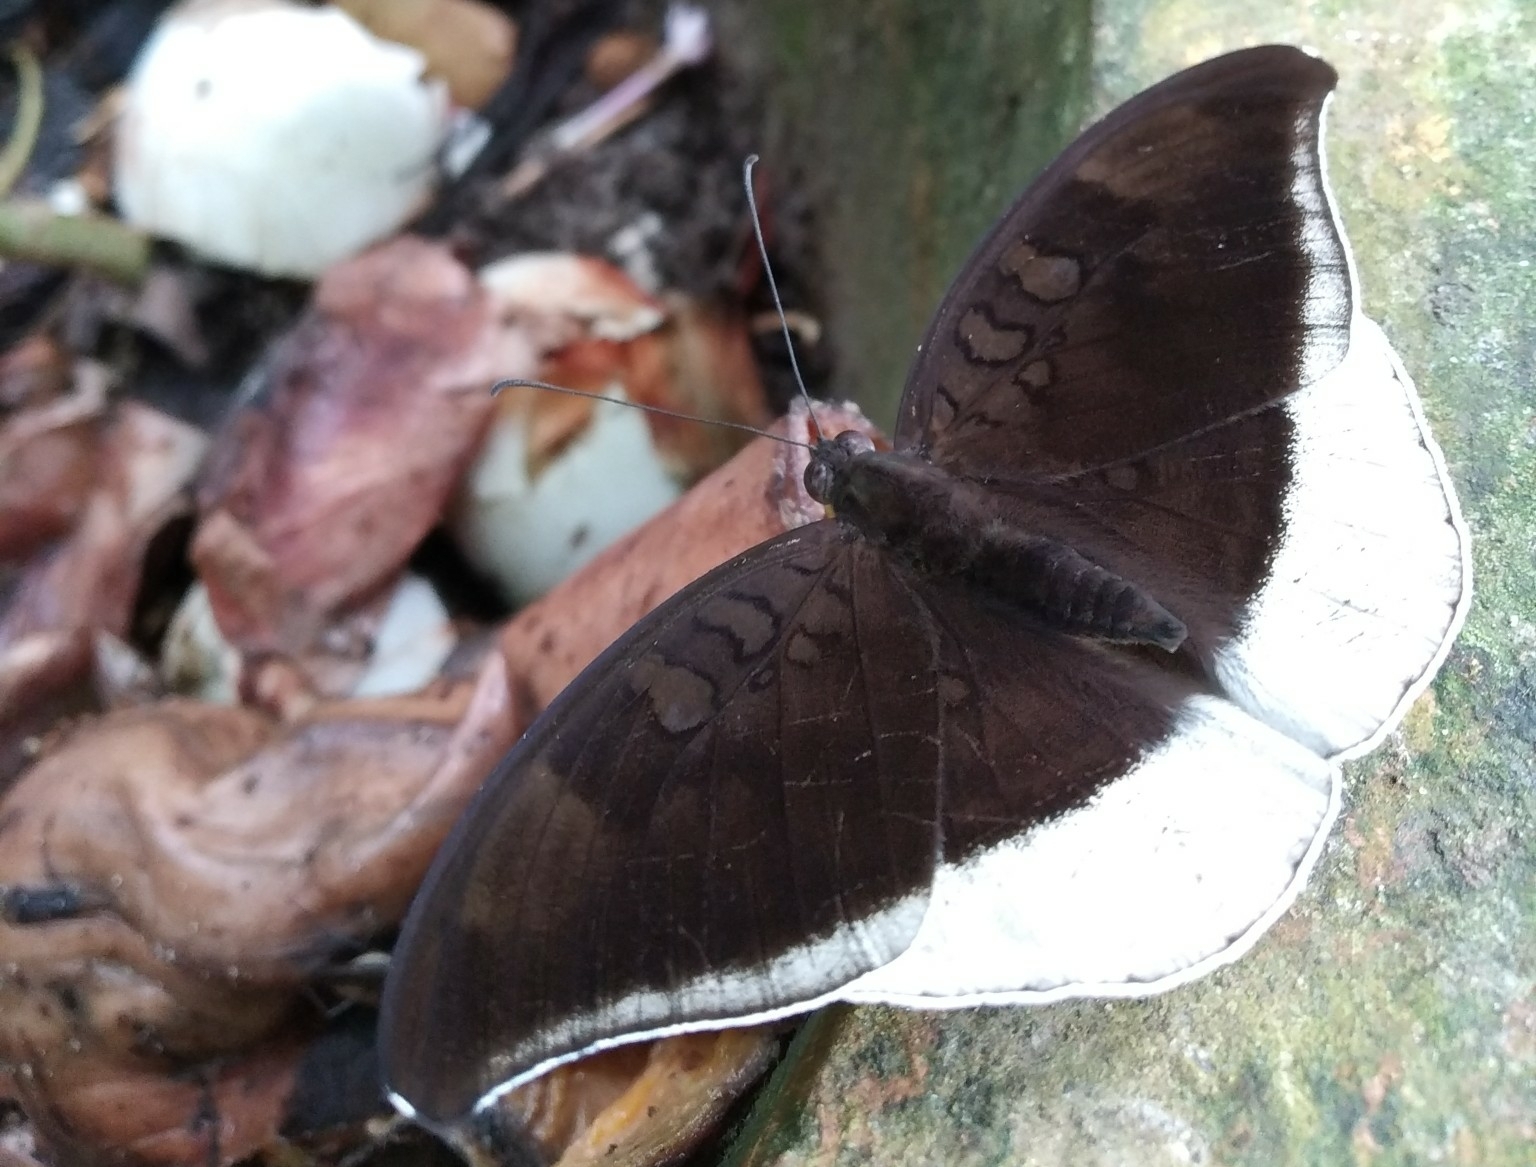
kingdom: Animalia
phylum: Arthropoda
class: Insecta
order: Lepidoptera
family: Nymphalidae
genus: Tanaecia
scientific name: Tanaecia lepidea
